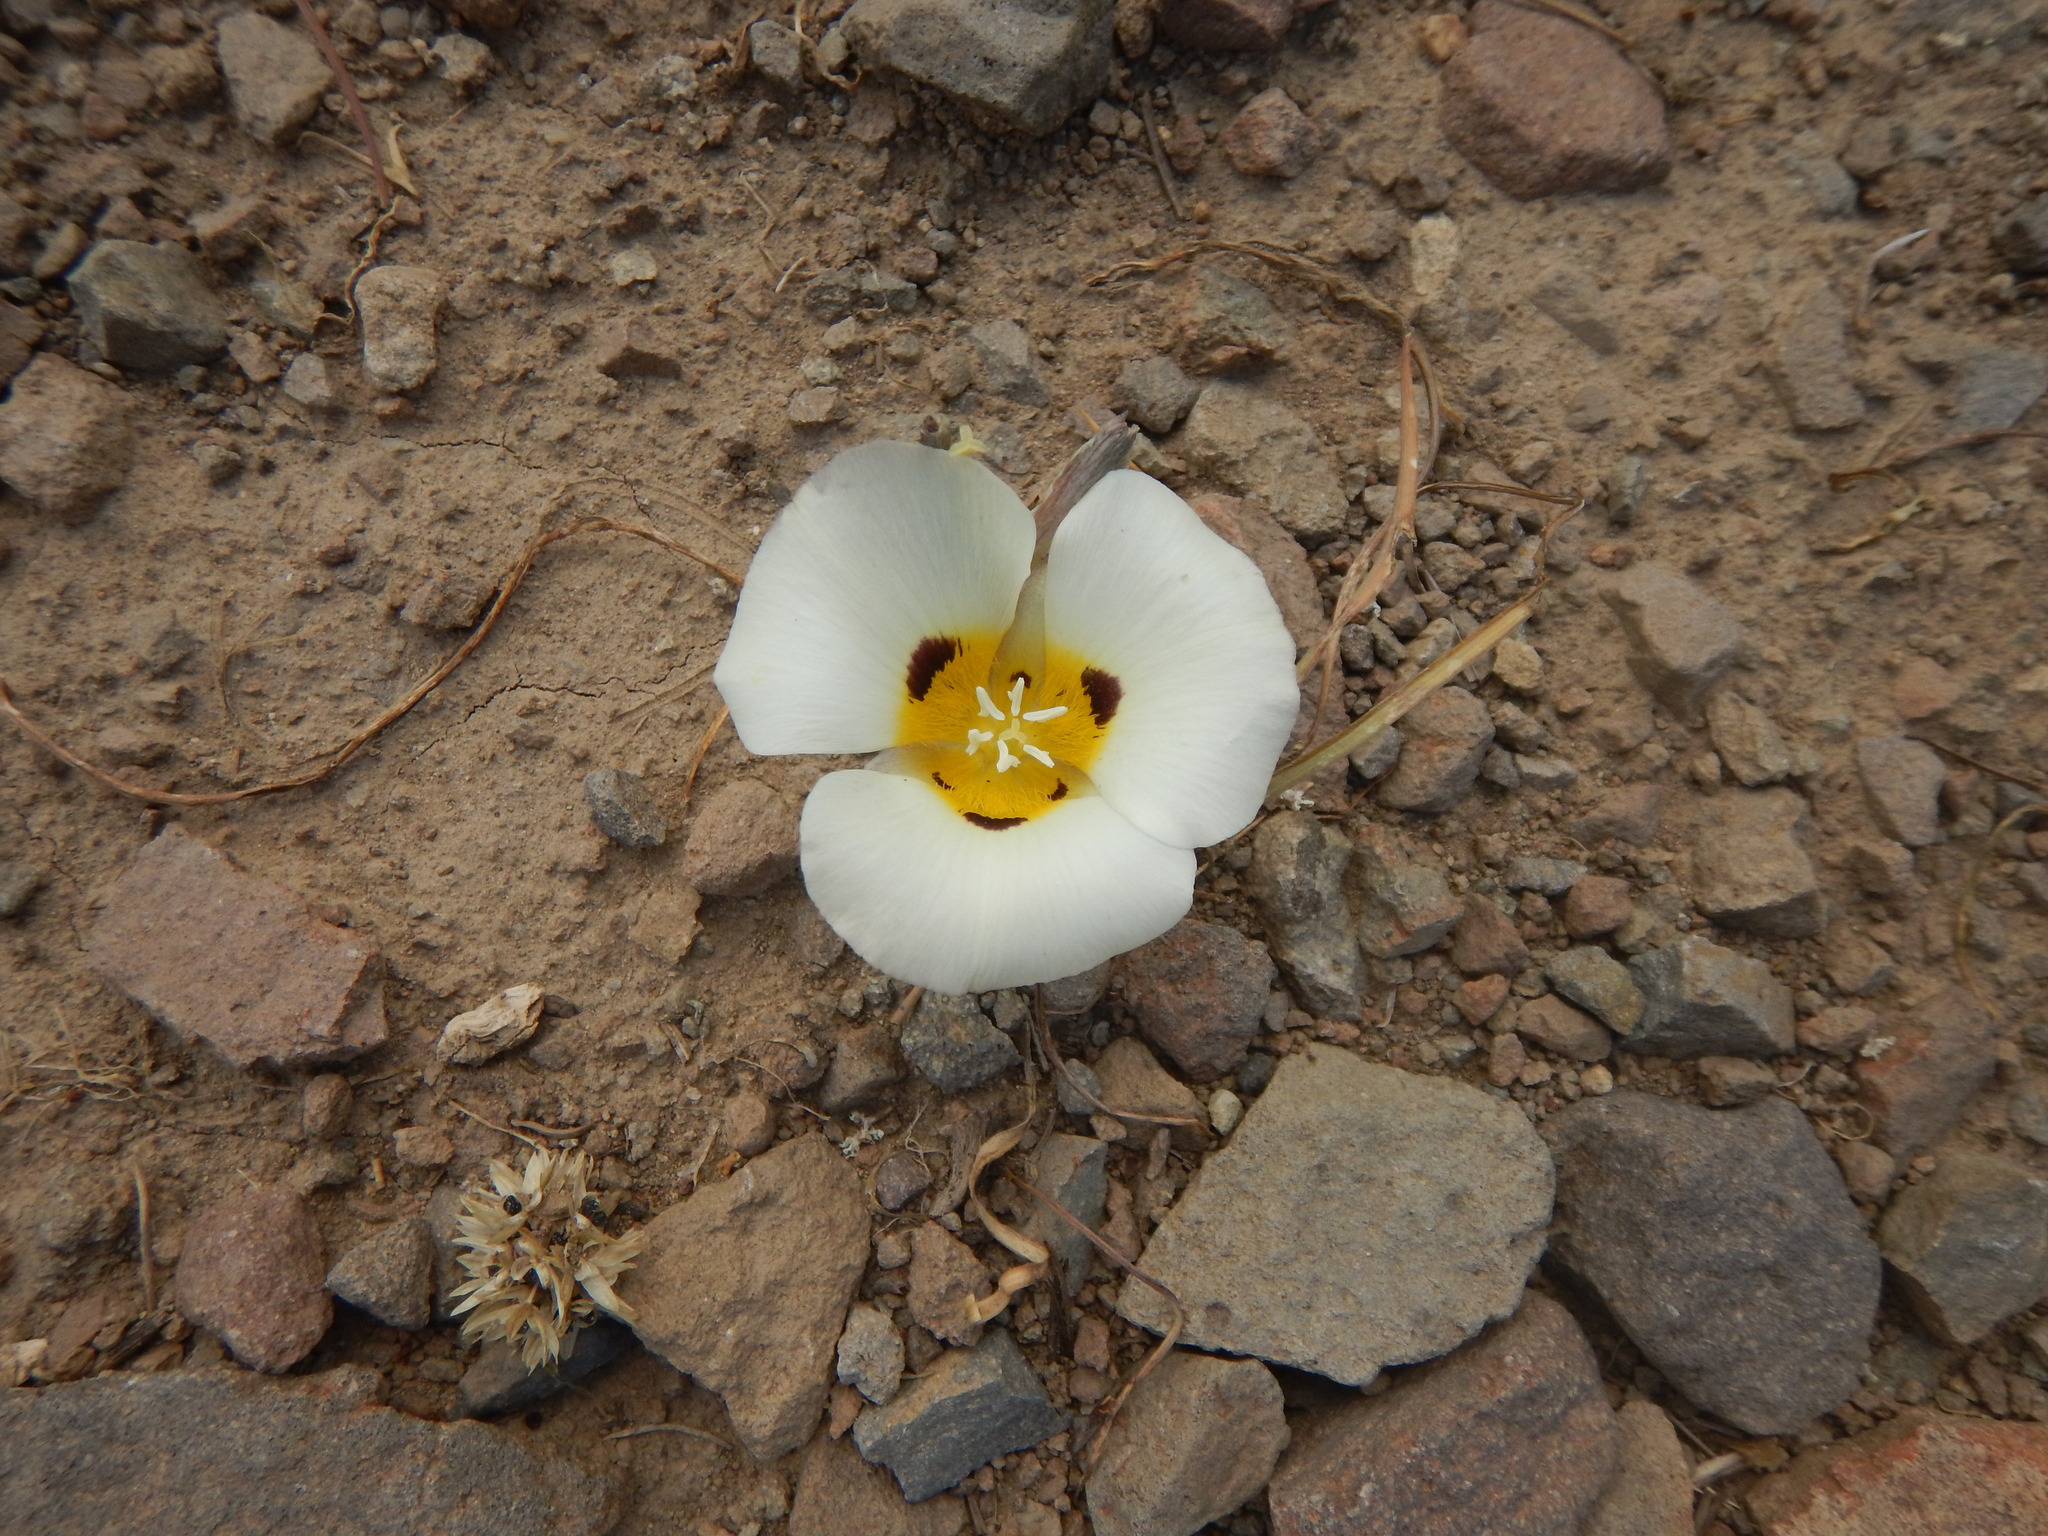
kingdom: Plantae
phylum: Tracheophyta
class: Liliopsida
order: Liliales
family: Liliaceae
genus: Calochortus
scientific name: Calochortus leichtlinii
